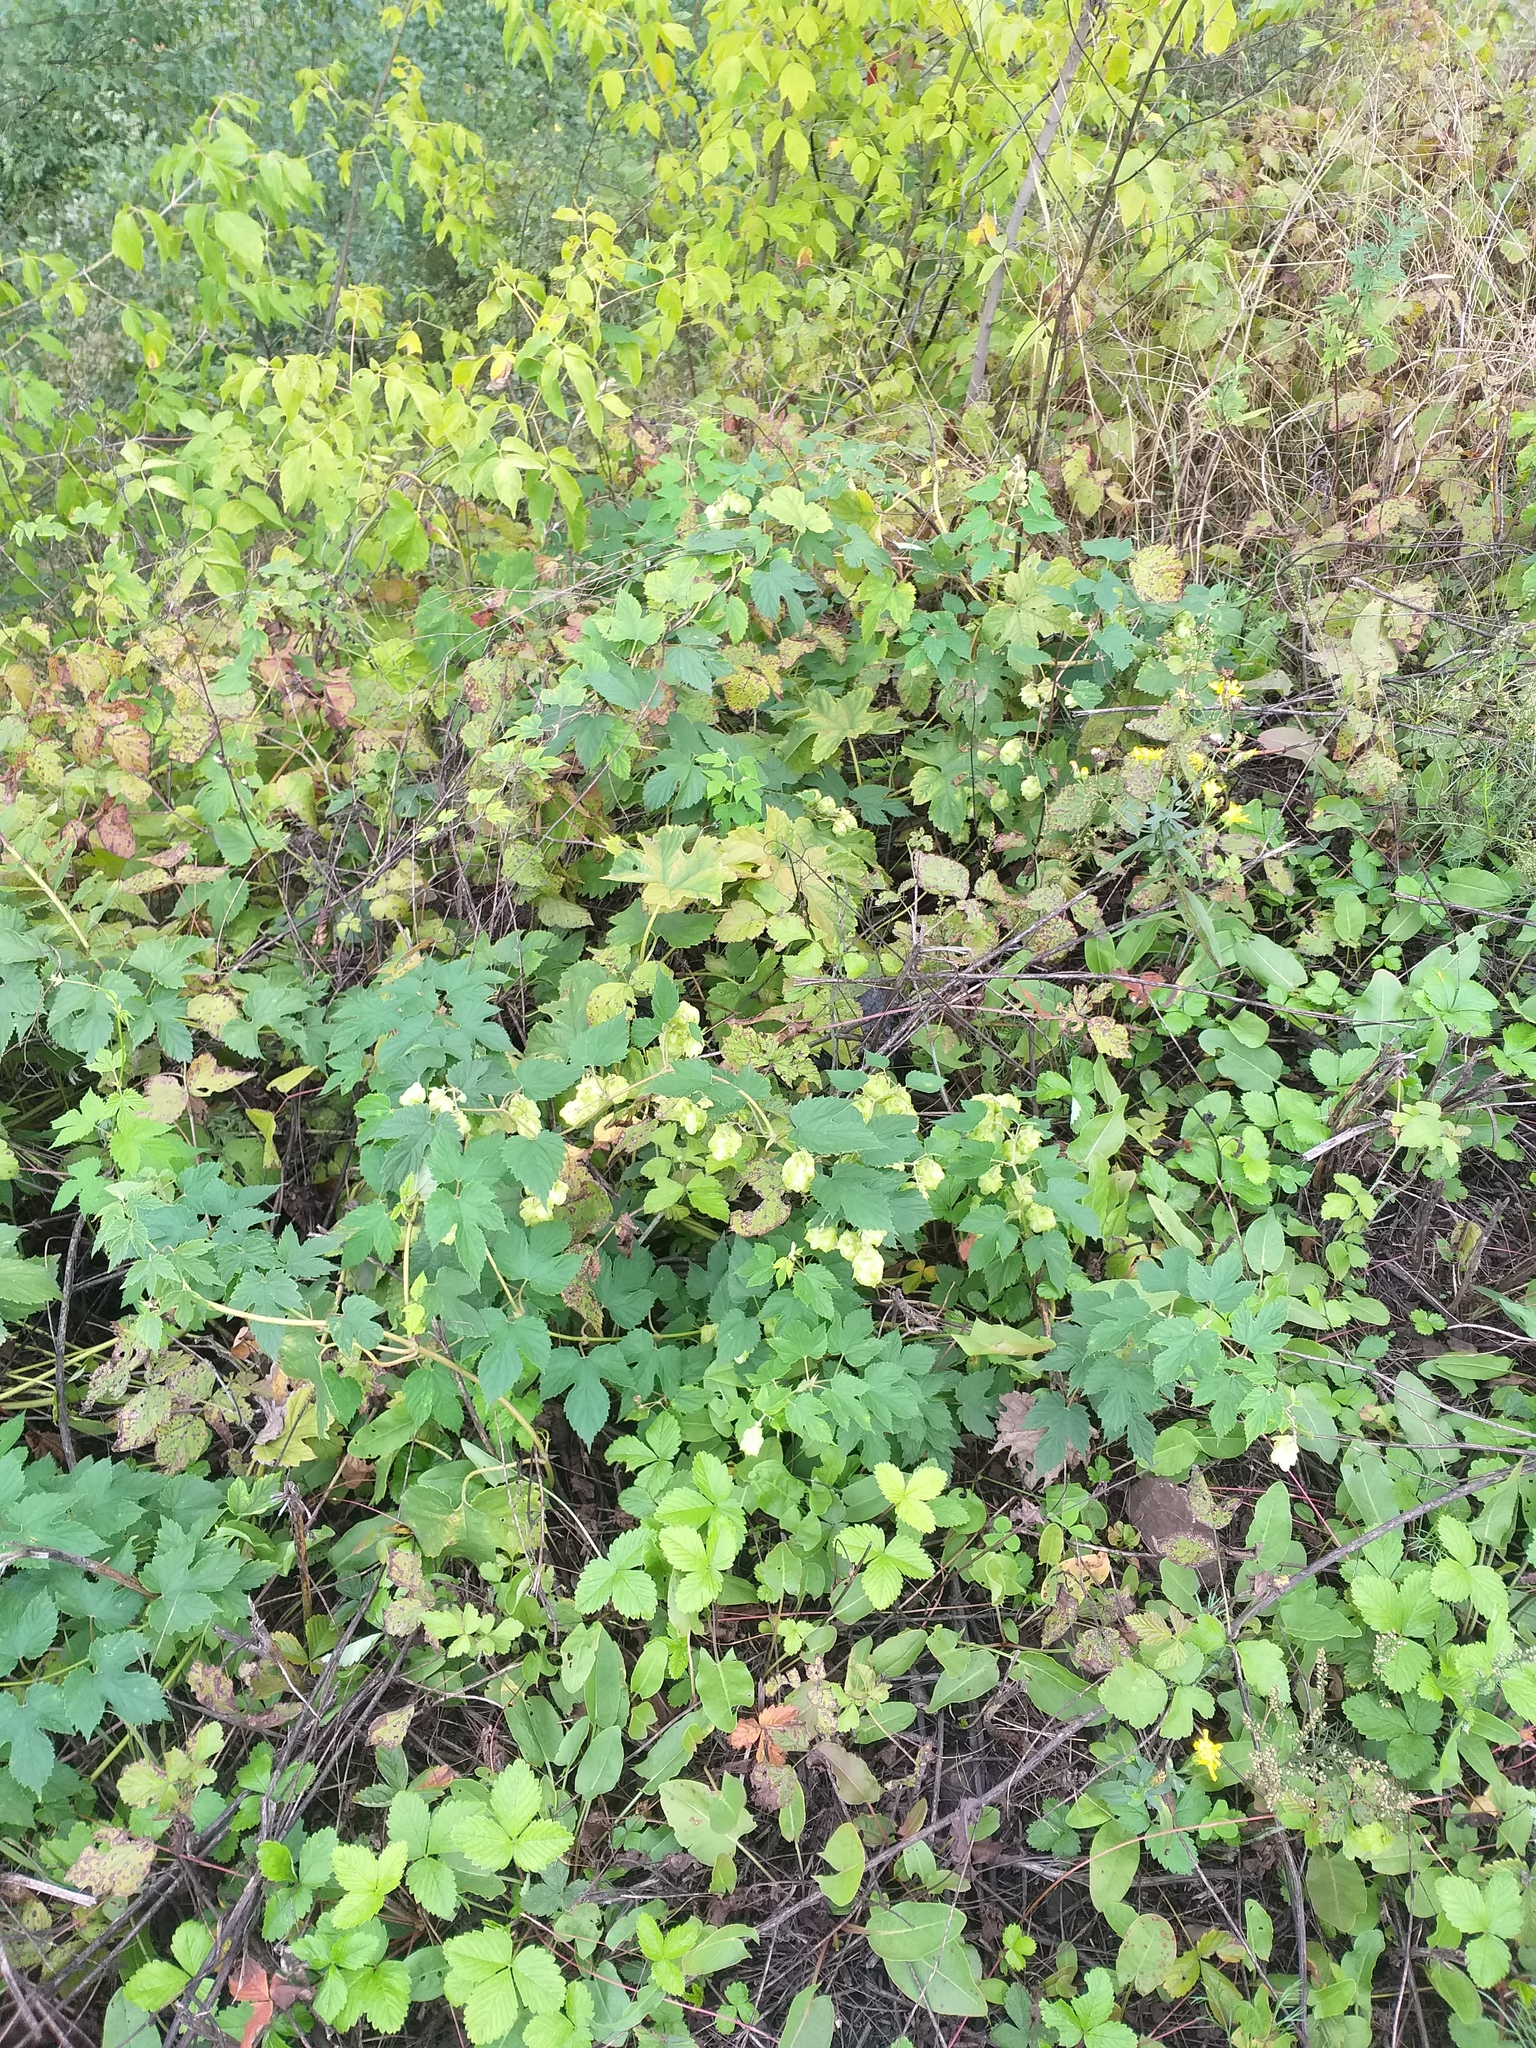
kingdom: Plantae
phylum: Tracheophyta
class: Magnoliopsida
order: Rosales
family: Cannabaceae
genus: Humulus
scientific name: Humulus lupulus
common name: Hop
